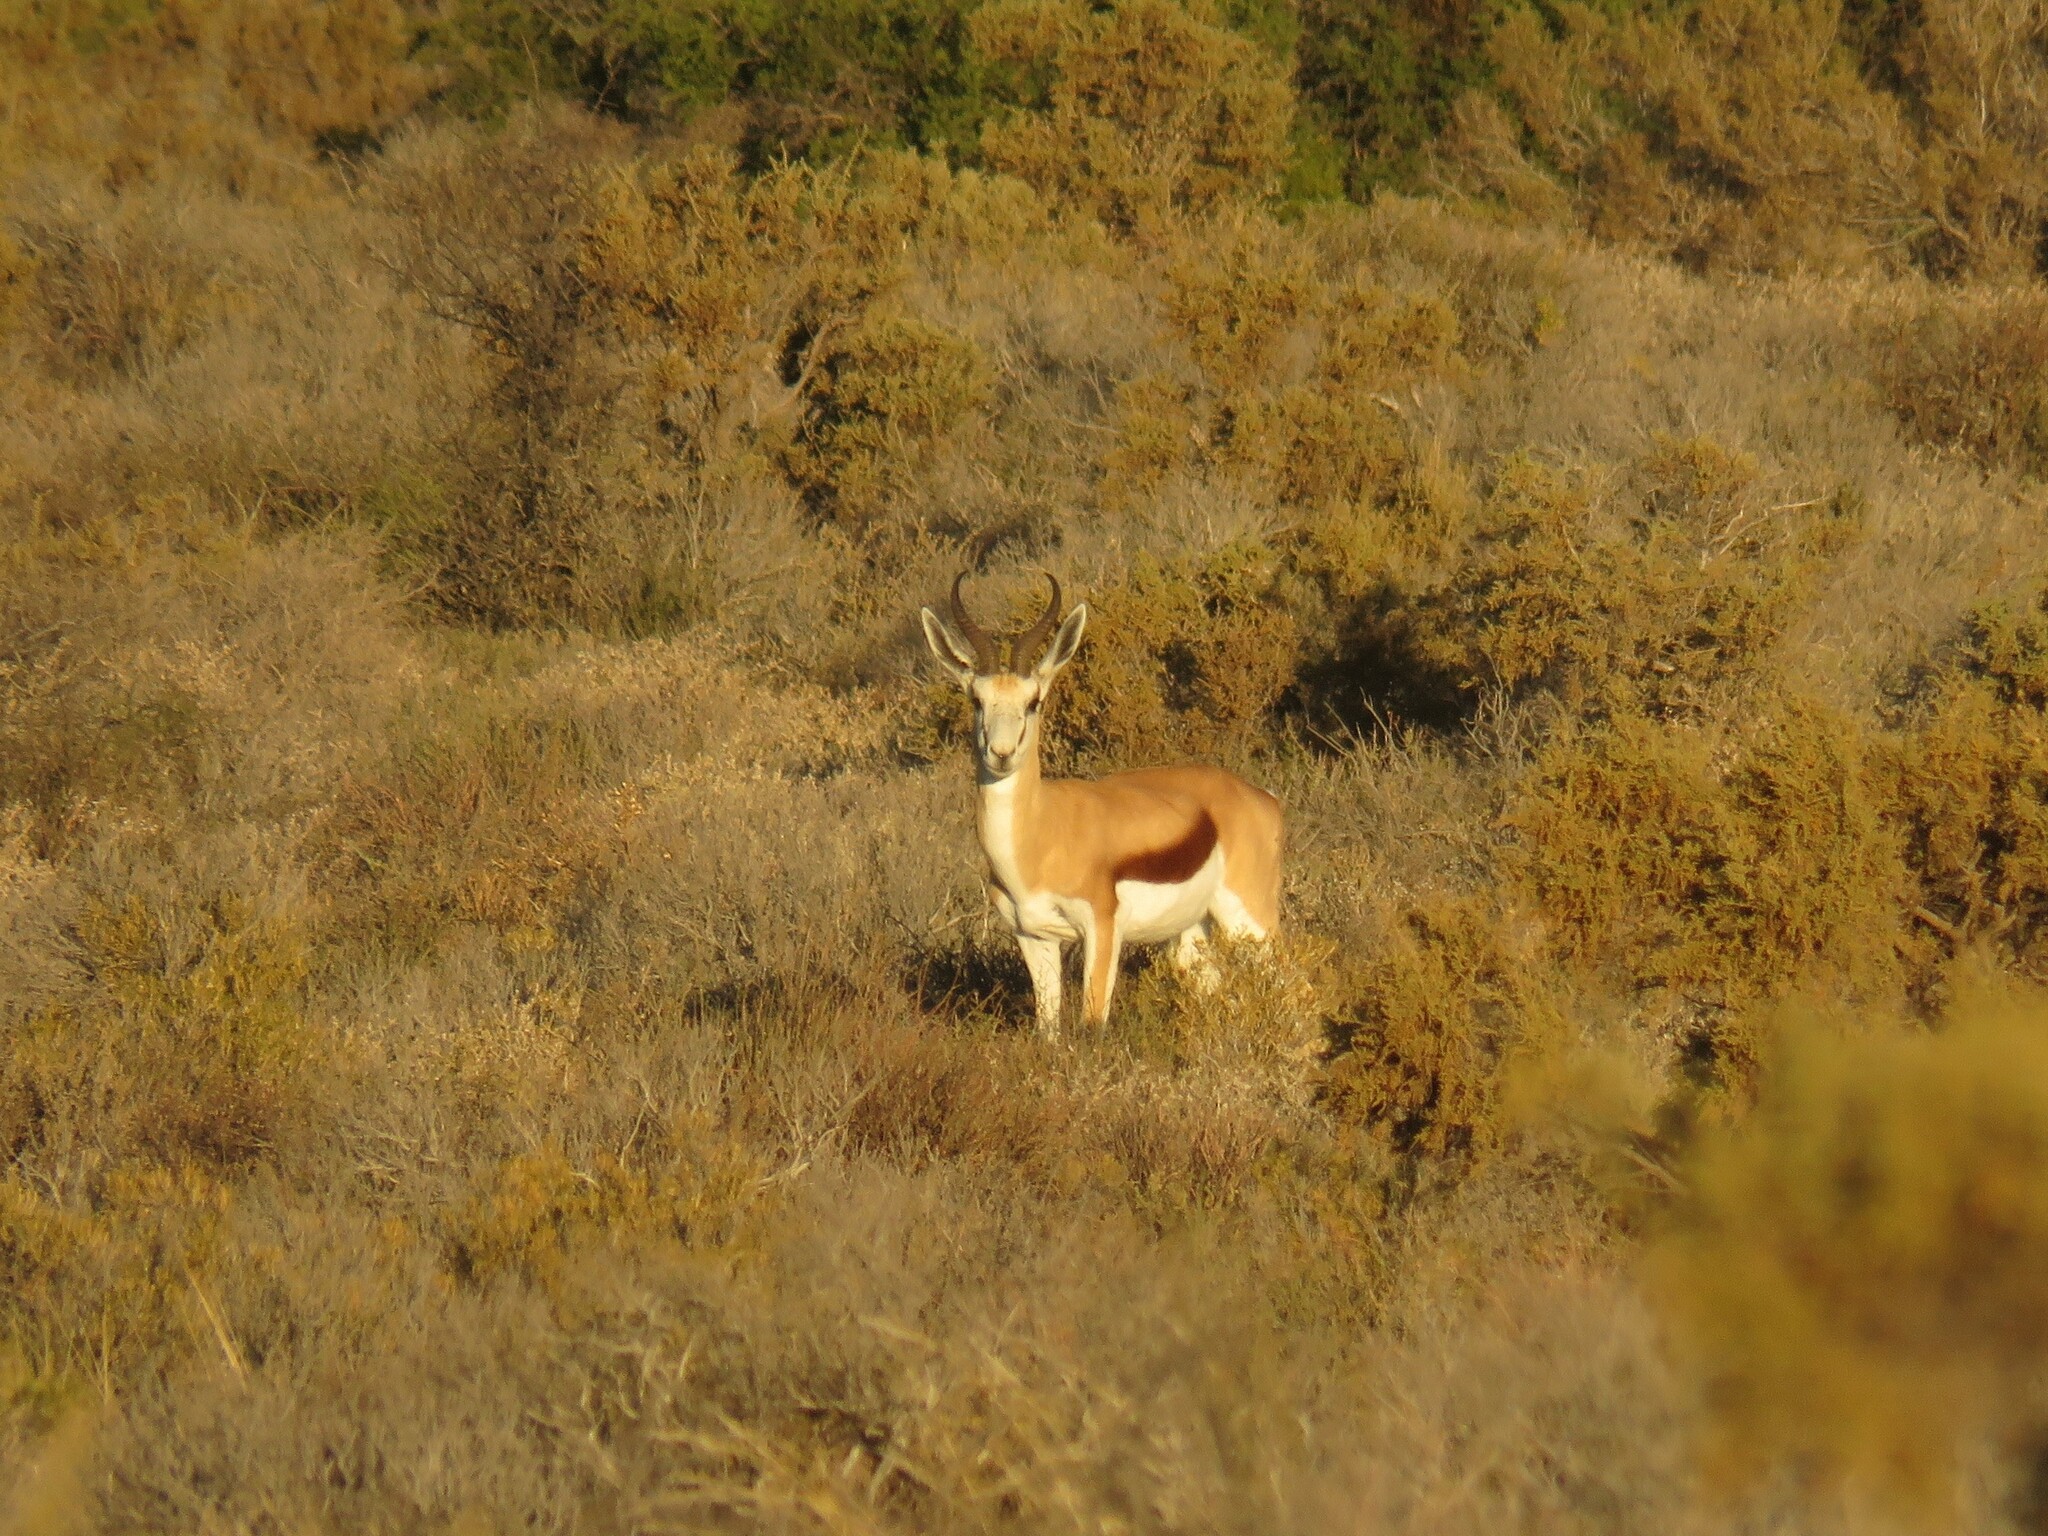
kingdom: Animalia
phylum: Chordata
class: Mammalia
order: Artiodactyla
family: Bovidae
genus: Antidorcas
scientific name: Antidorcas marsupialis
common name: Springbok
